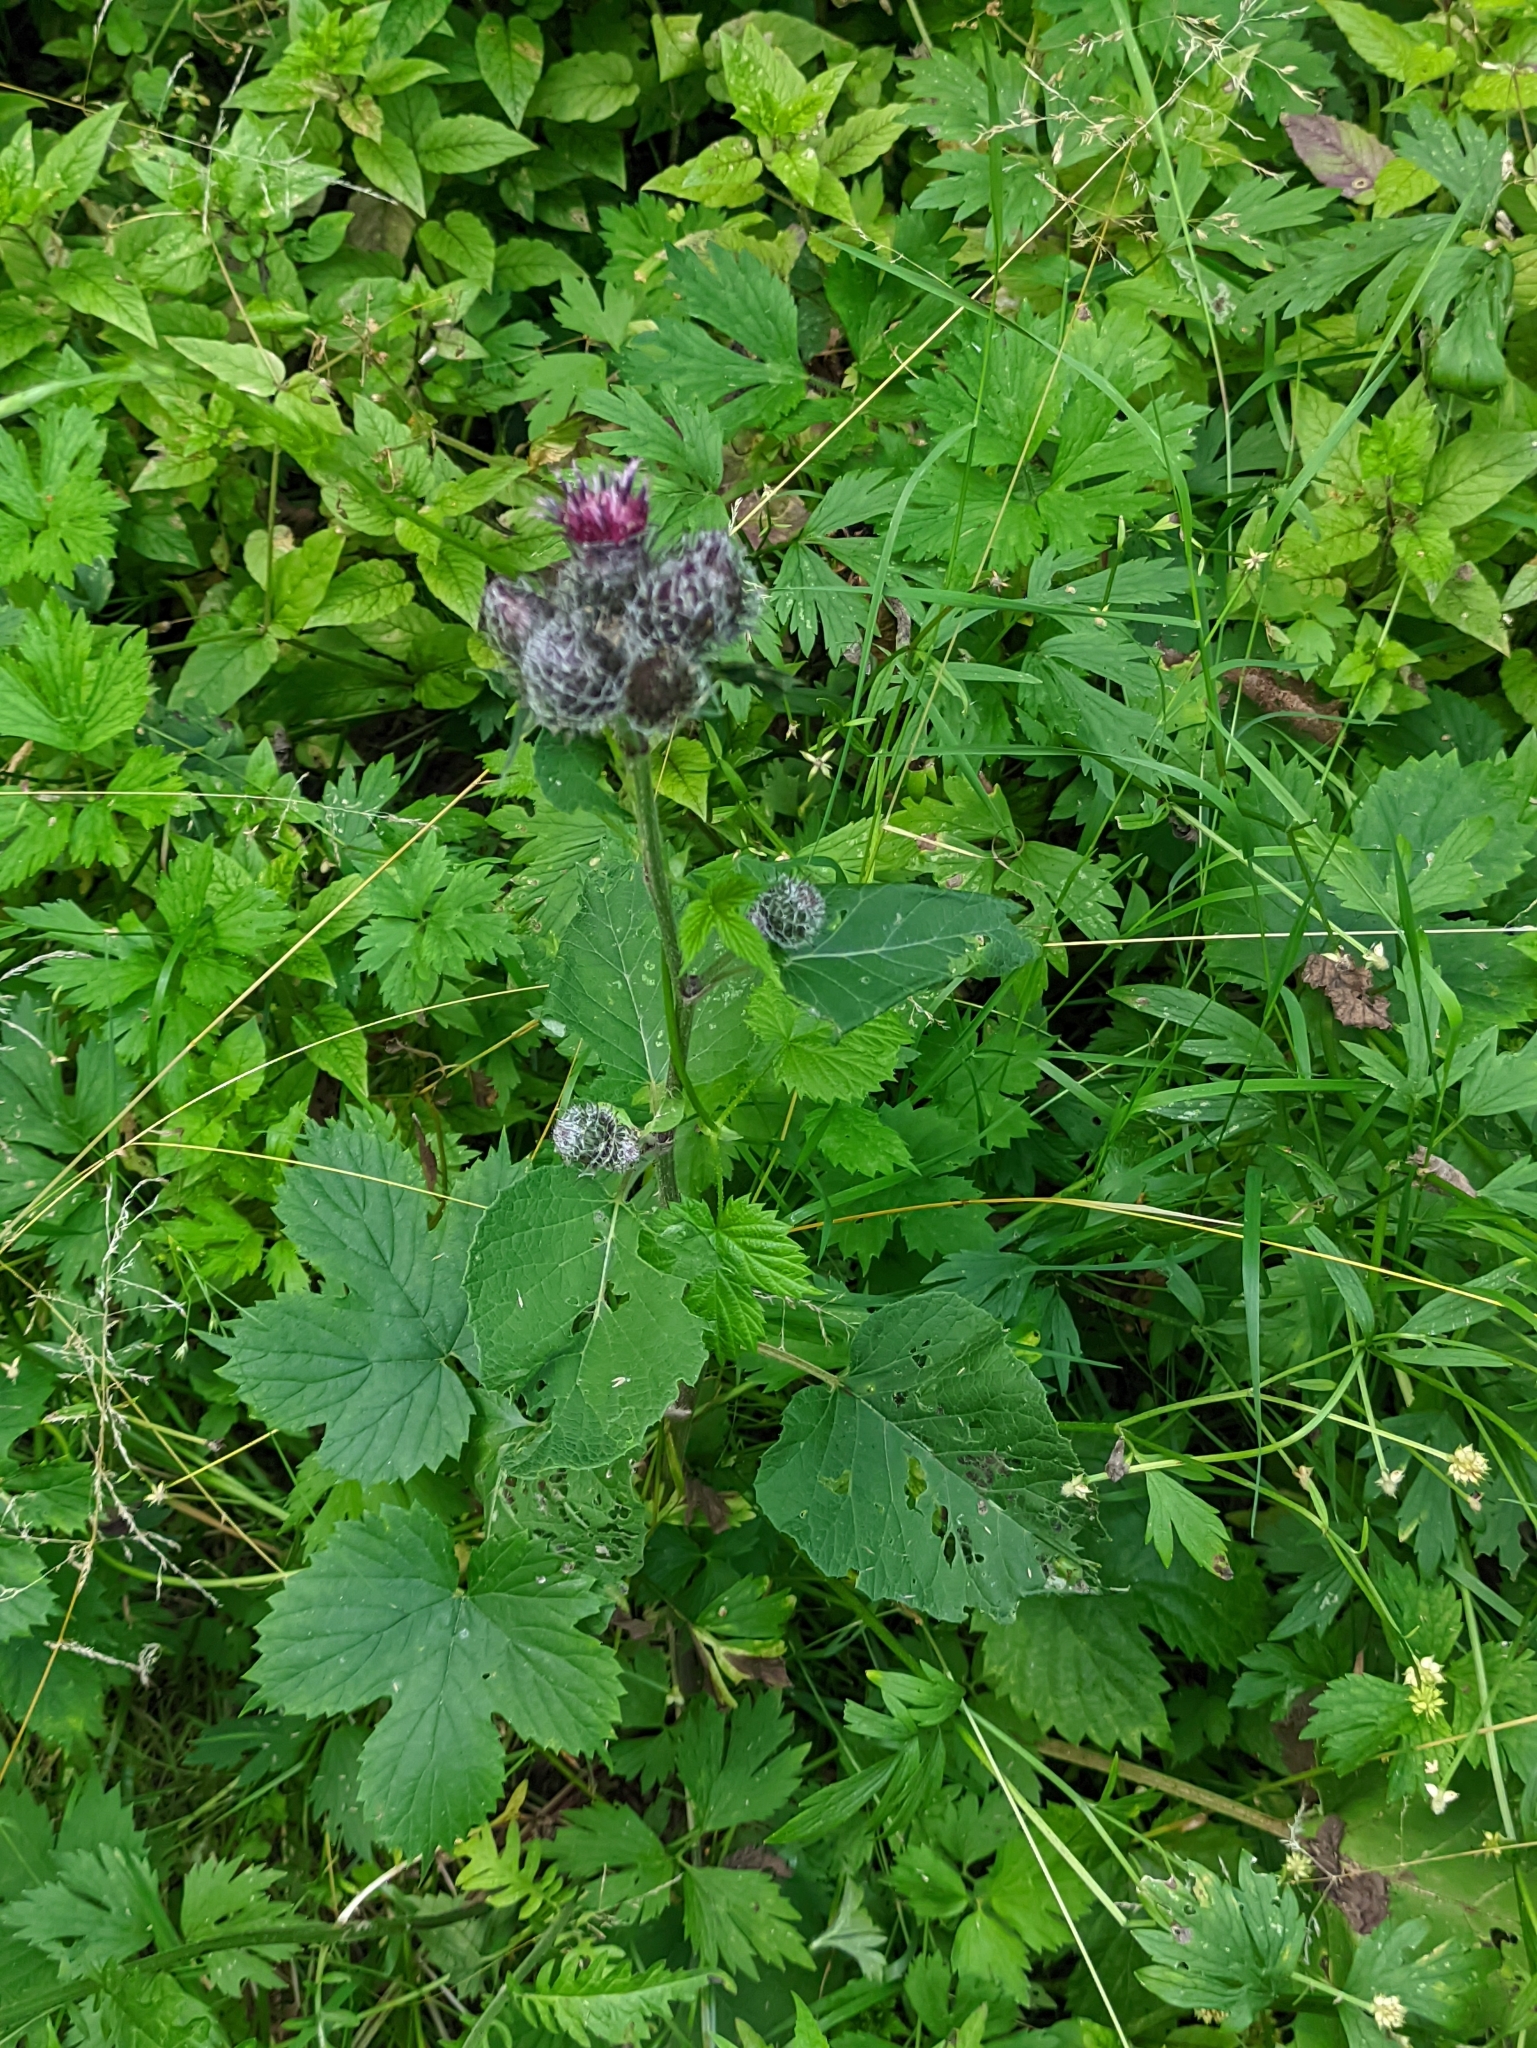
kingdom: Plantae
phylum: Tracheophyta
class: Magnoliopsida
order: Asterales
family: Asteraceae
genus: Arctium
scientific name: Arctium tomentosum
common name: Woolly burdock
